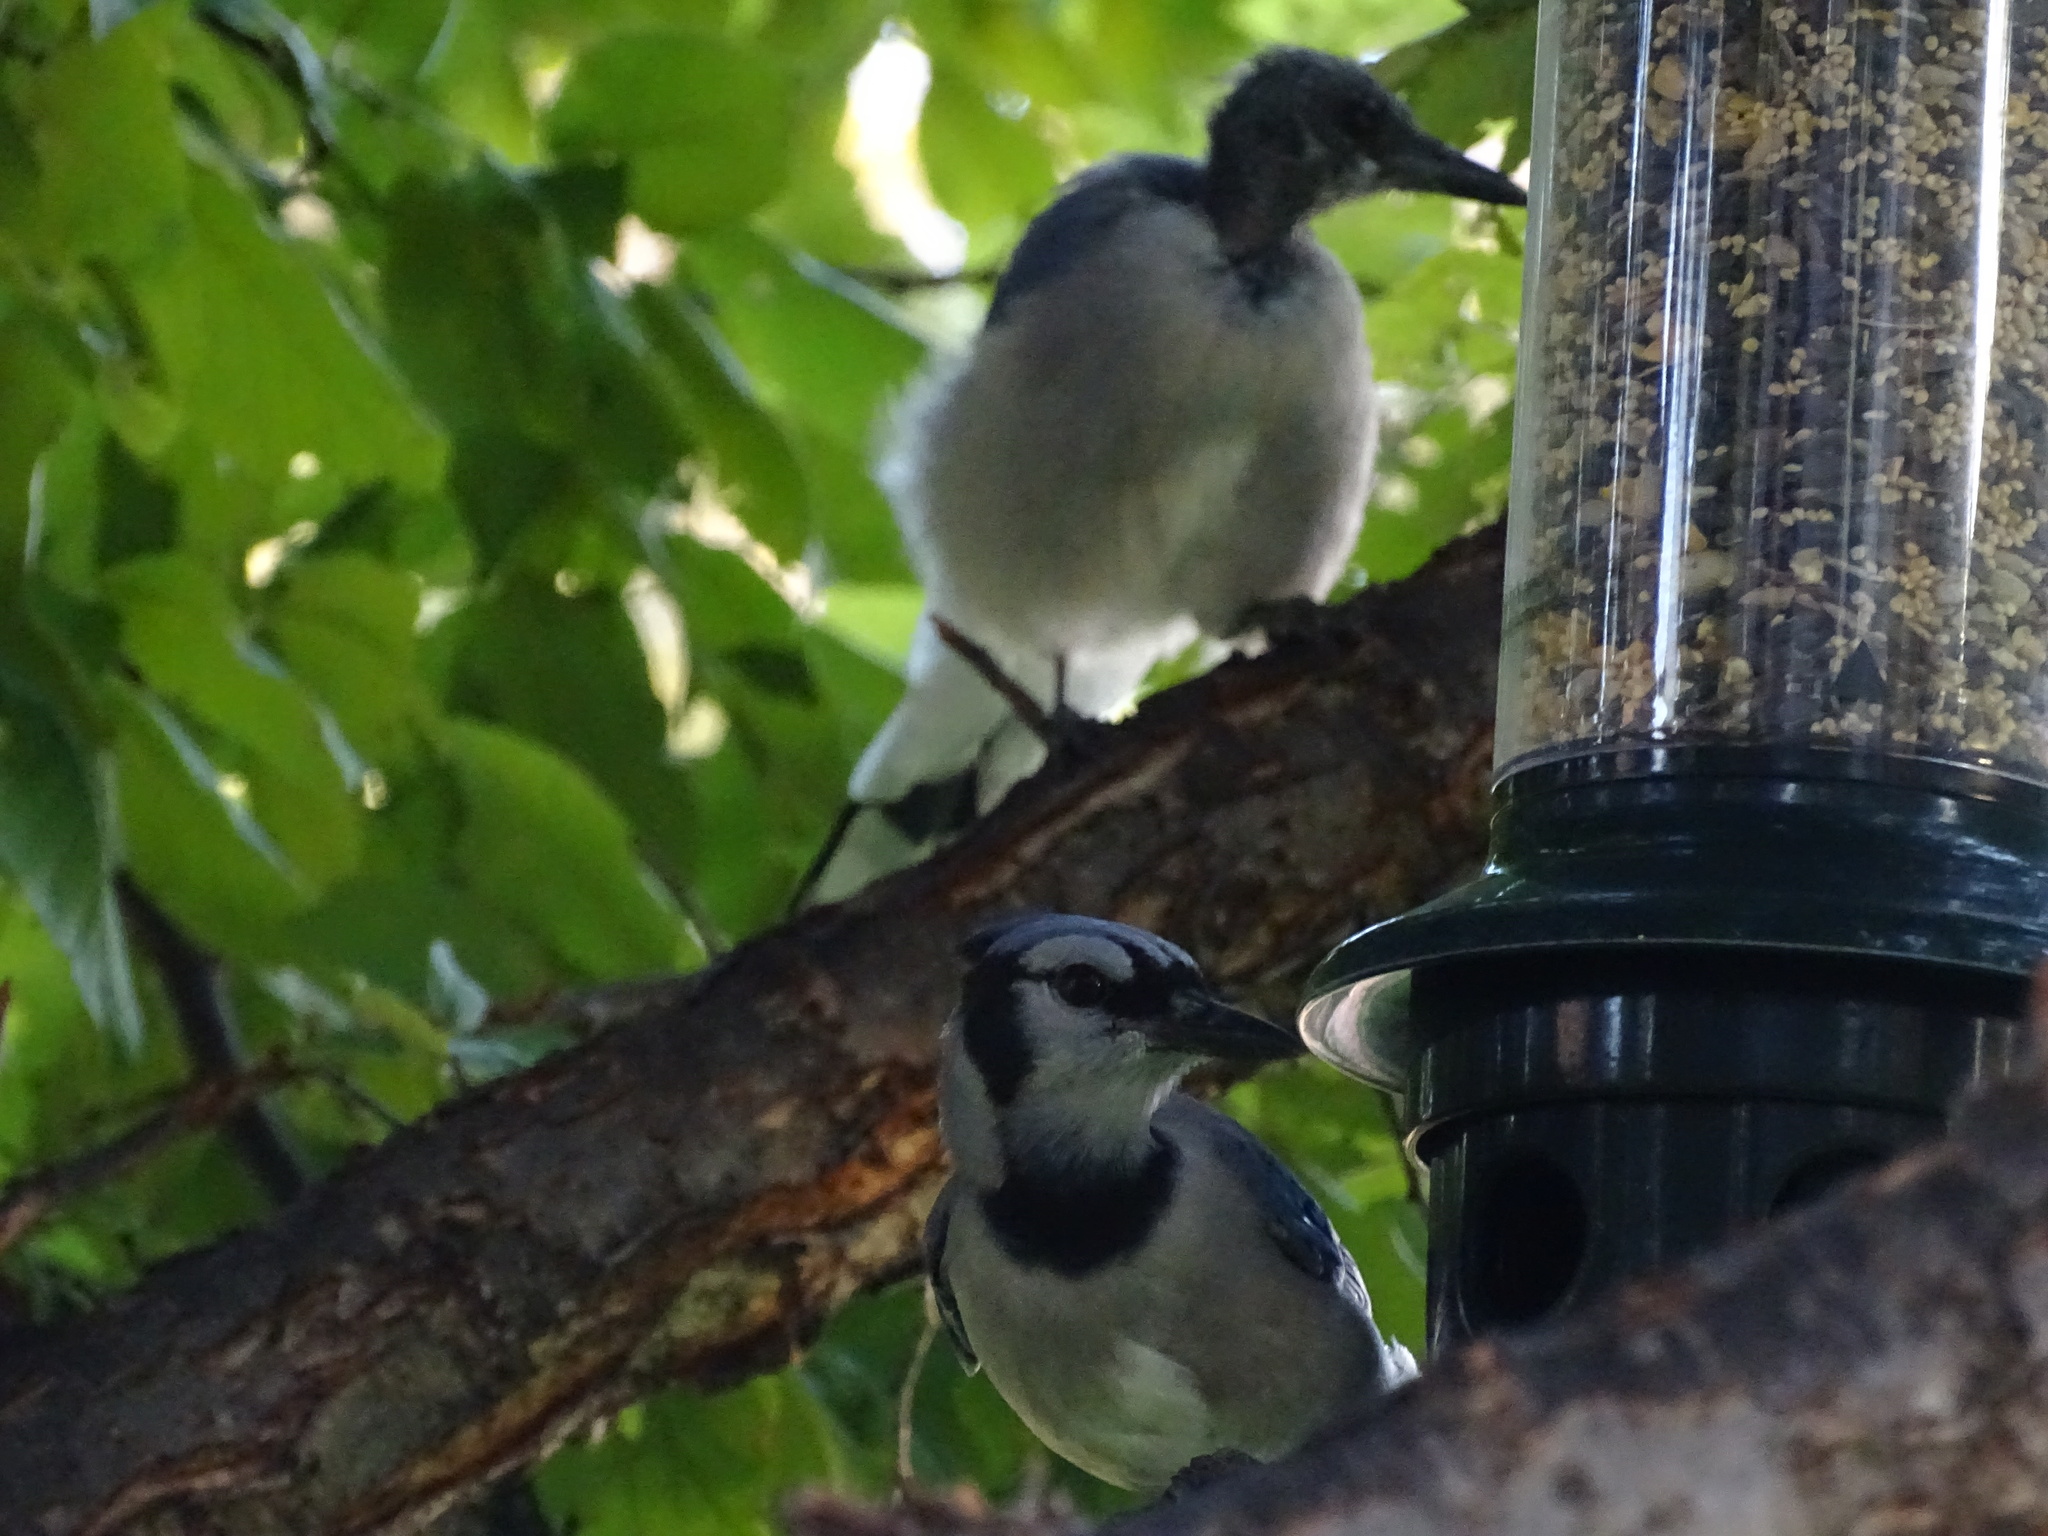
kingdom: Animalia
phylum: Chordata
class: Aves
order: Passeriformes
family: Corvidae
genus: Cyanocitta
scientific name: Cyanocitta cristata
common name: Blue jay
